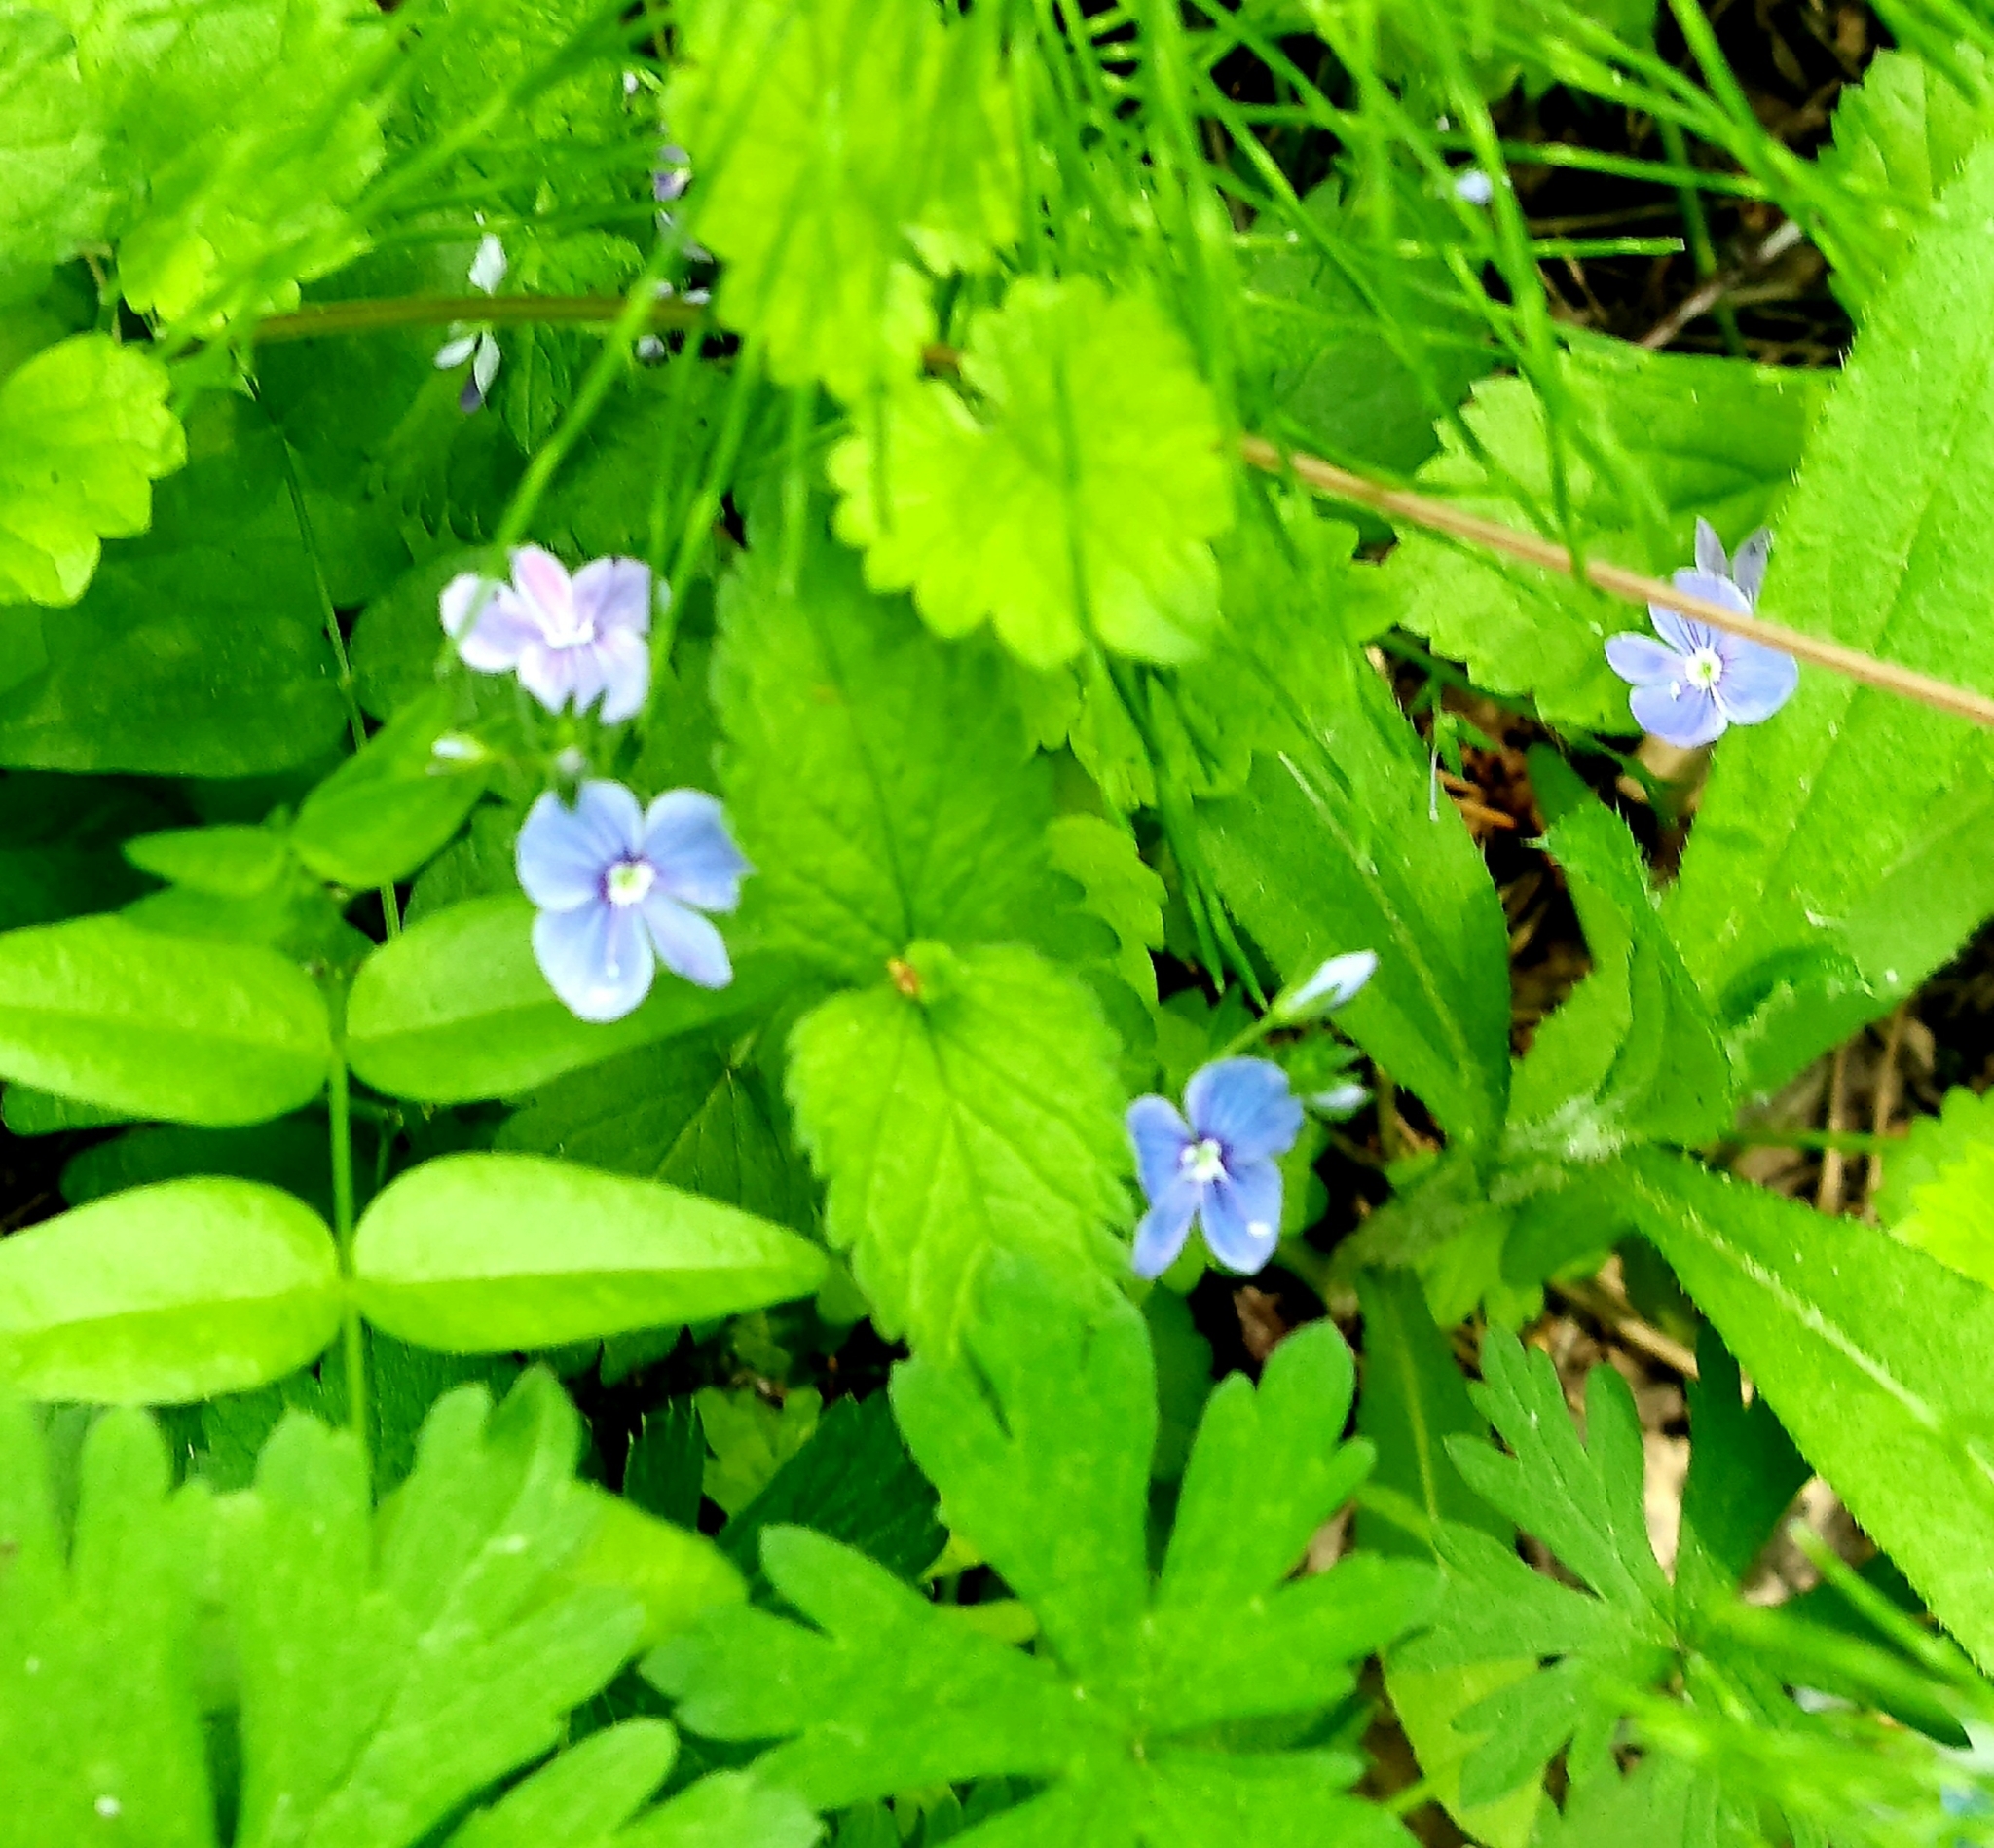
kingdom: Plantae
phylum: Tracheophyta
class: Magnoliopsida
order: Lamiales
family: Plantaginaceae
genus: Veronica
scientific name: Veronica chamaedrys
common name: Germander speedwell
